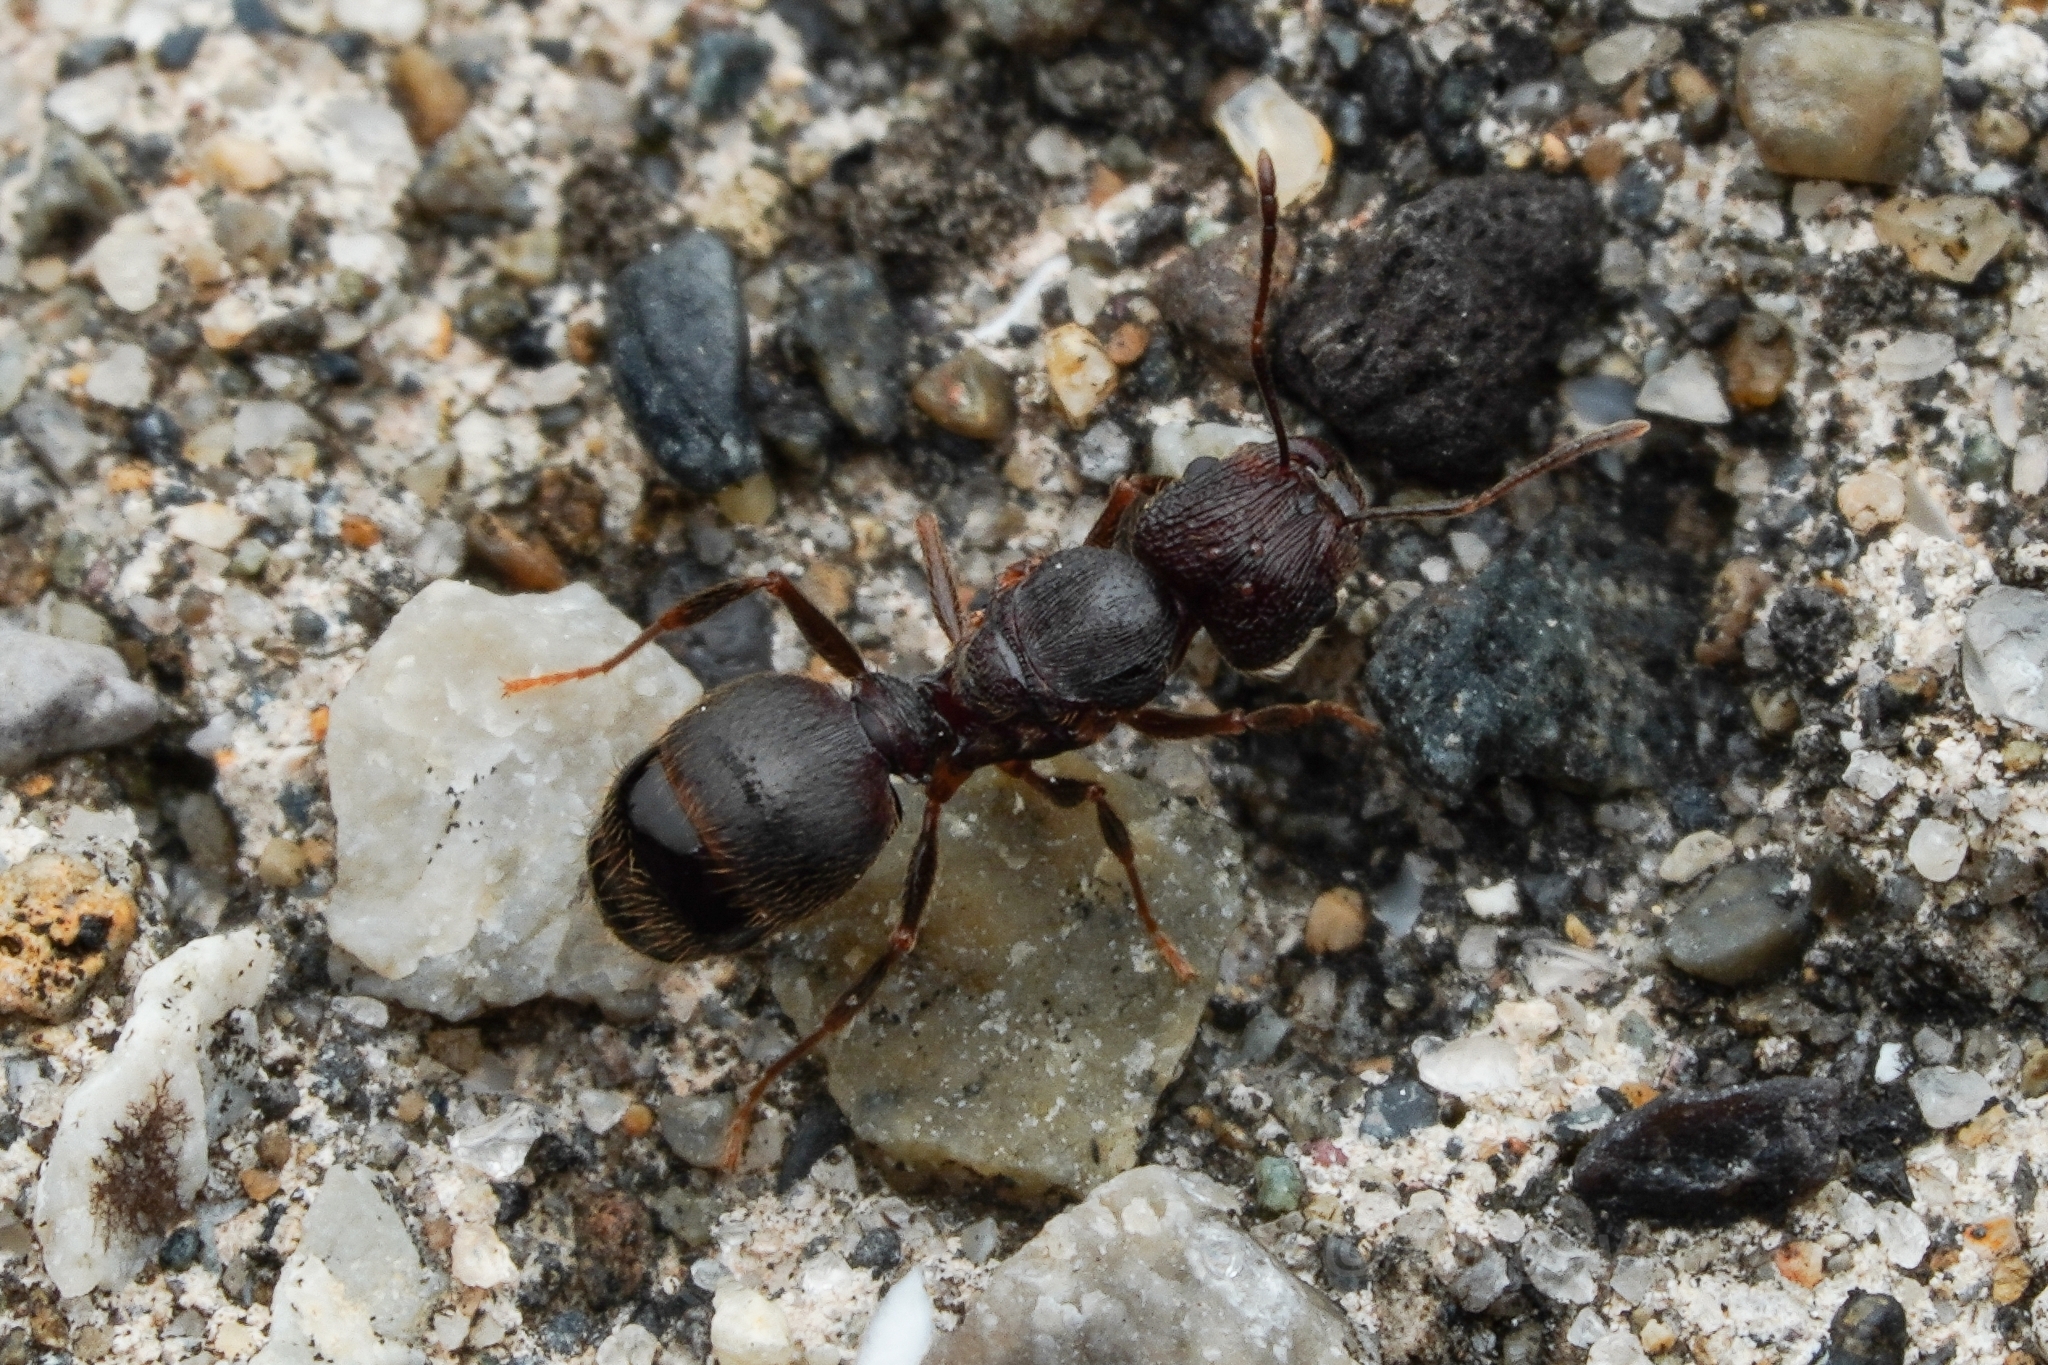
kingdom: Animalia
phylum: Arthropoda
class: Insecta
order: Hymenoptera
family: Formicidae
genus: Pheidole
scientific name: Pheidole noda
